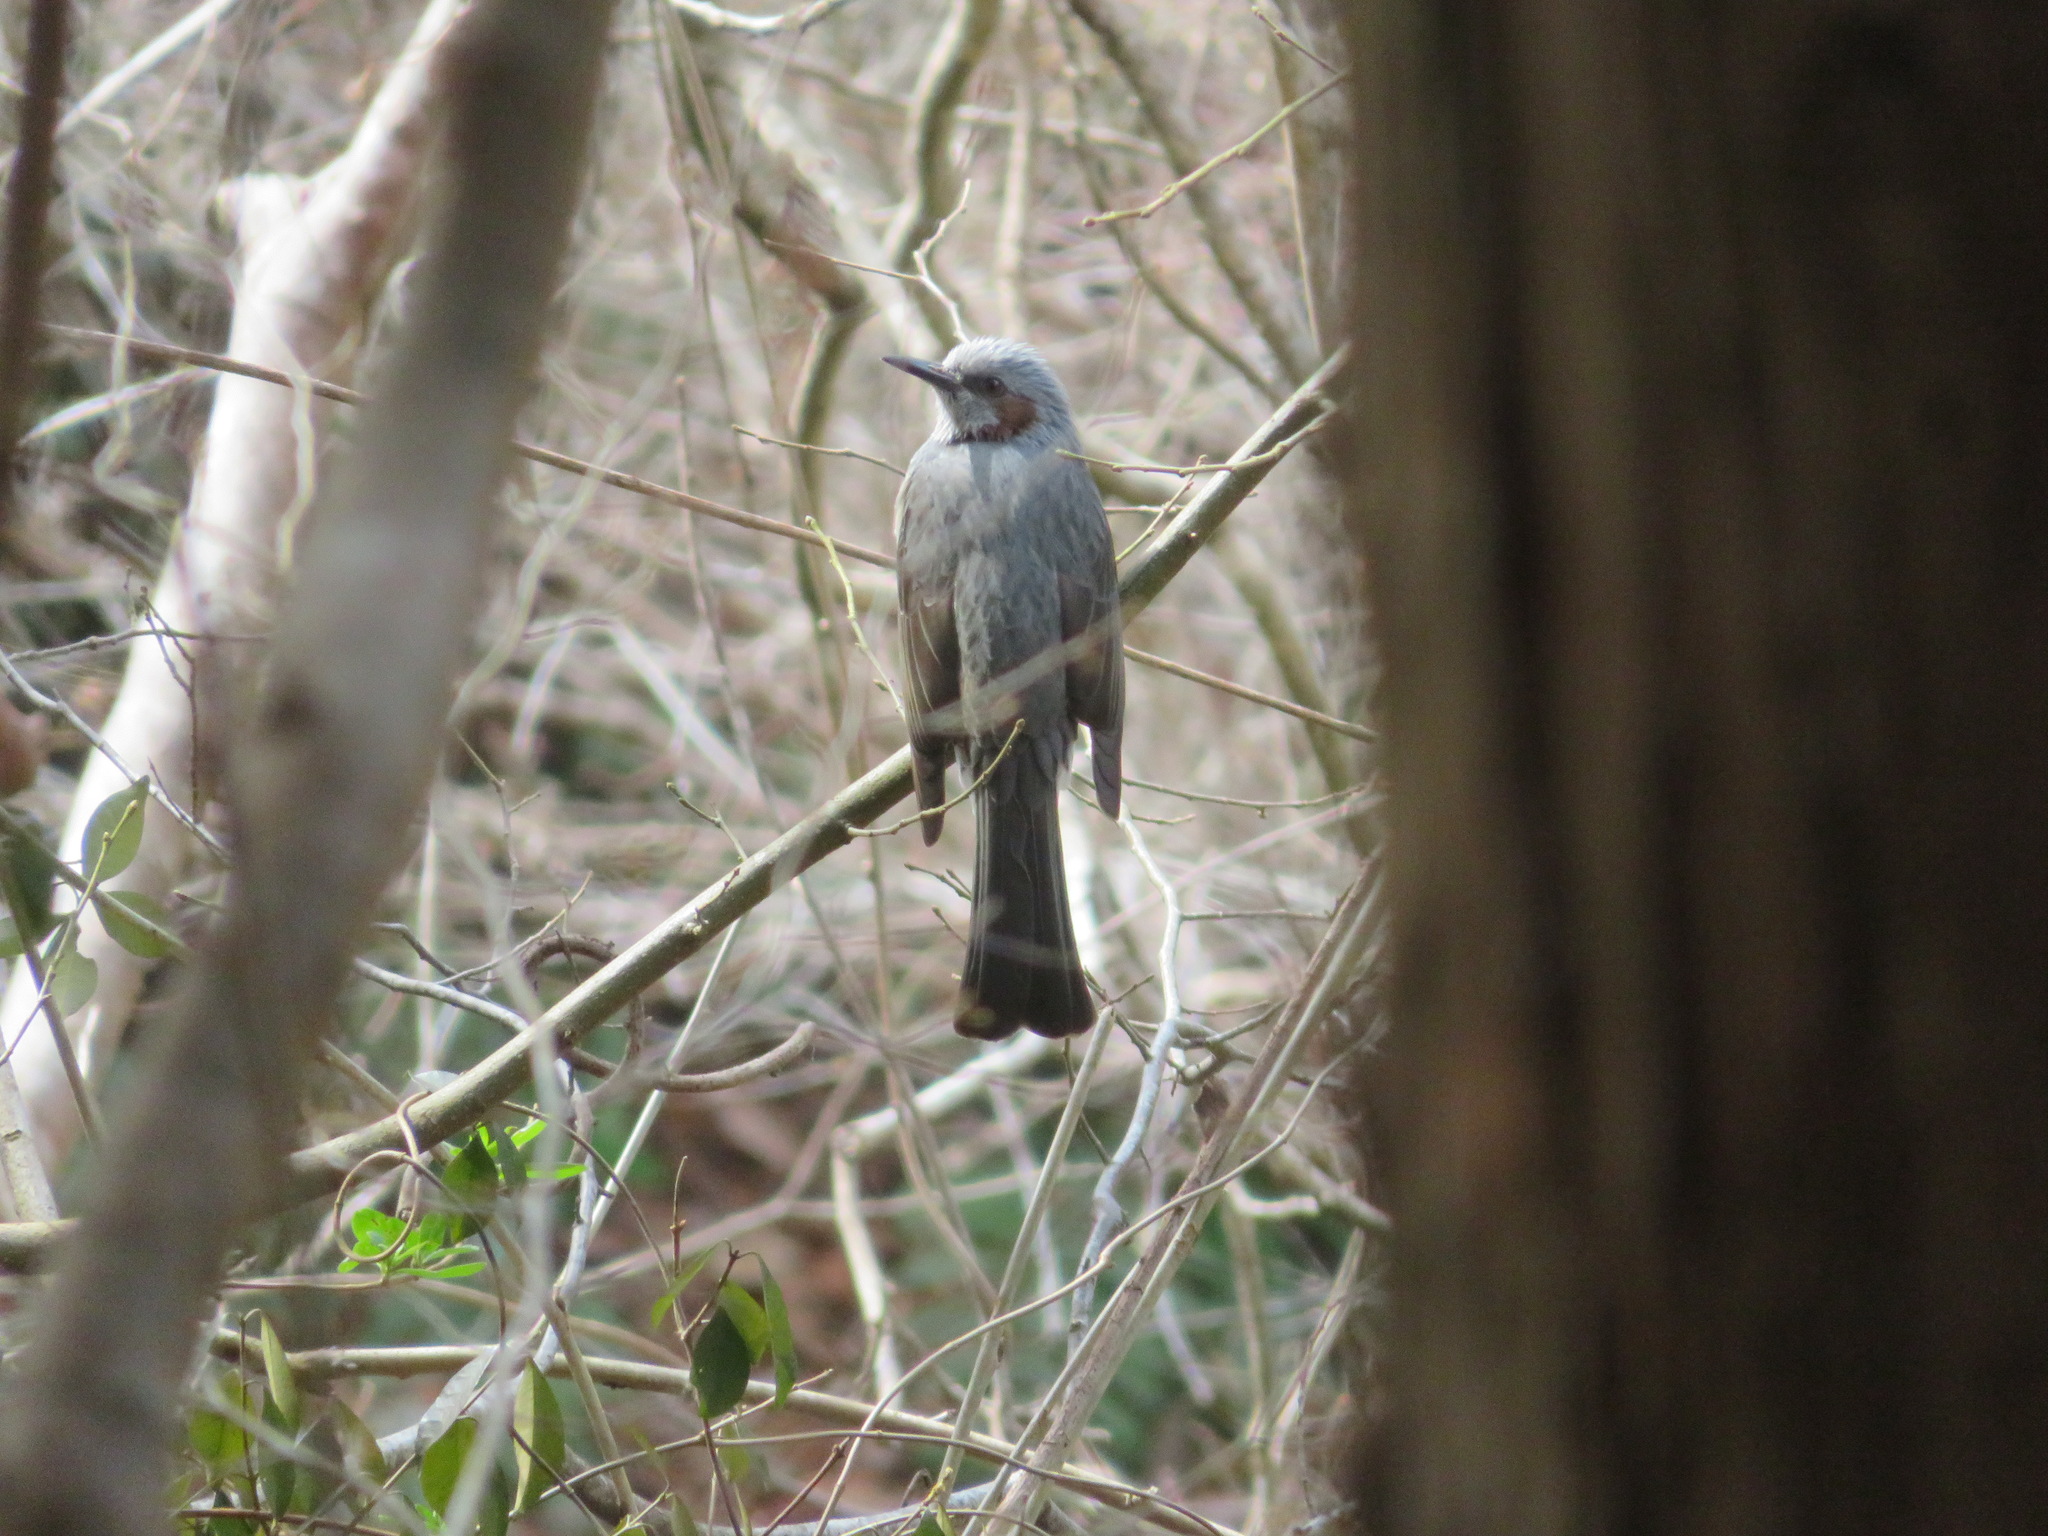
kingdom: Animalia
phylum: Chordata
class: Aves
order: Passeriformes
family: Pycnonotidae
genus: Hypsipetes
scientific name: Hypsipetes amaurotis
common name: Brown-eared bulbul
